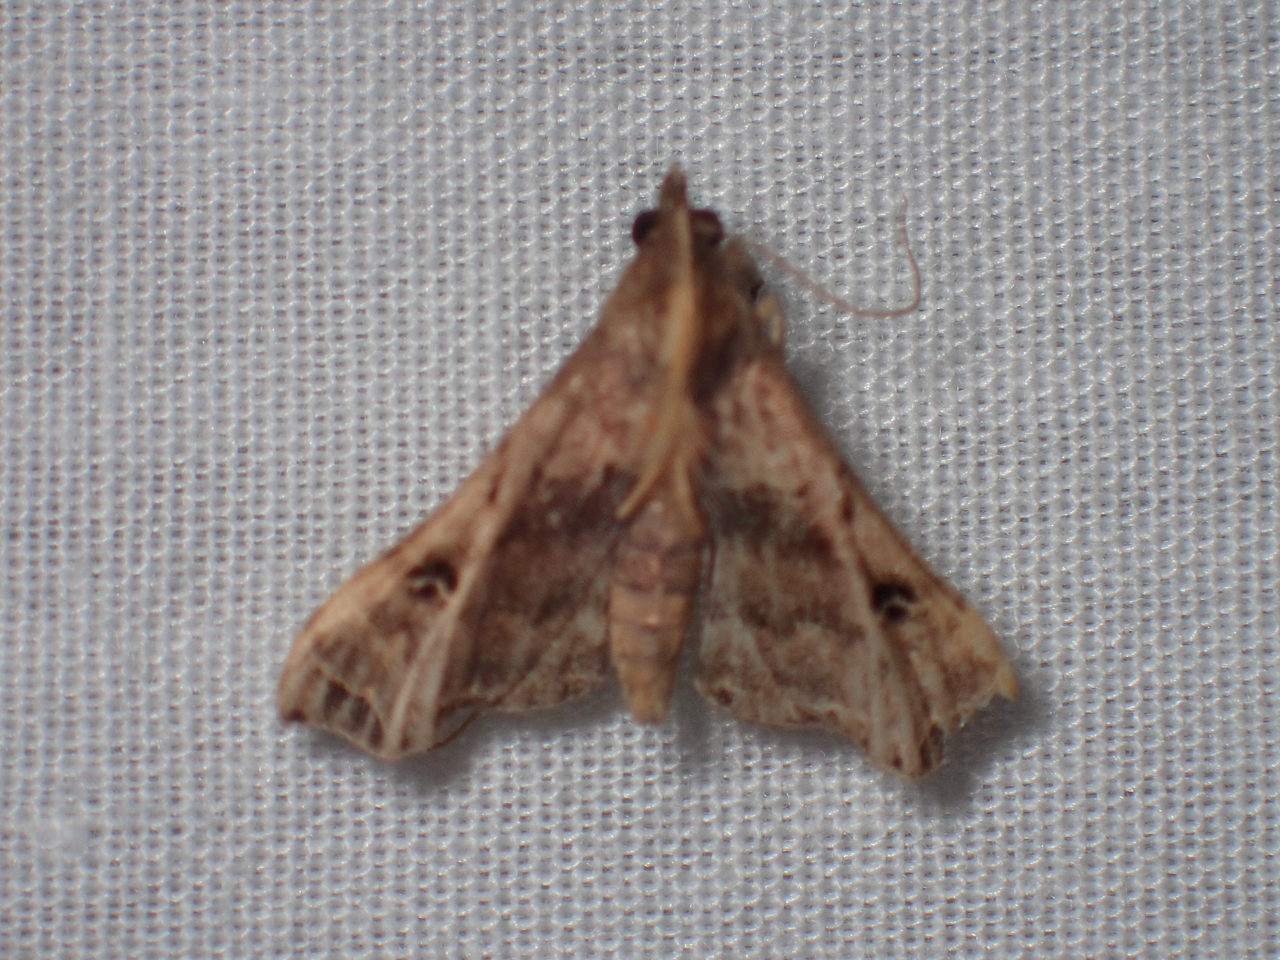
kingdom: Animalia
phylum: Arthropoda
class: Insecta
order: Lepidoptera
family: Erebidae
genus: Palthis
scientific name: Palthis asopialis
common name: Faint-spotted palthis moth
